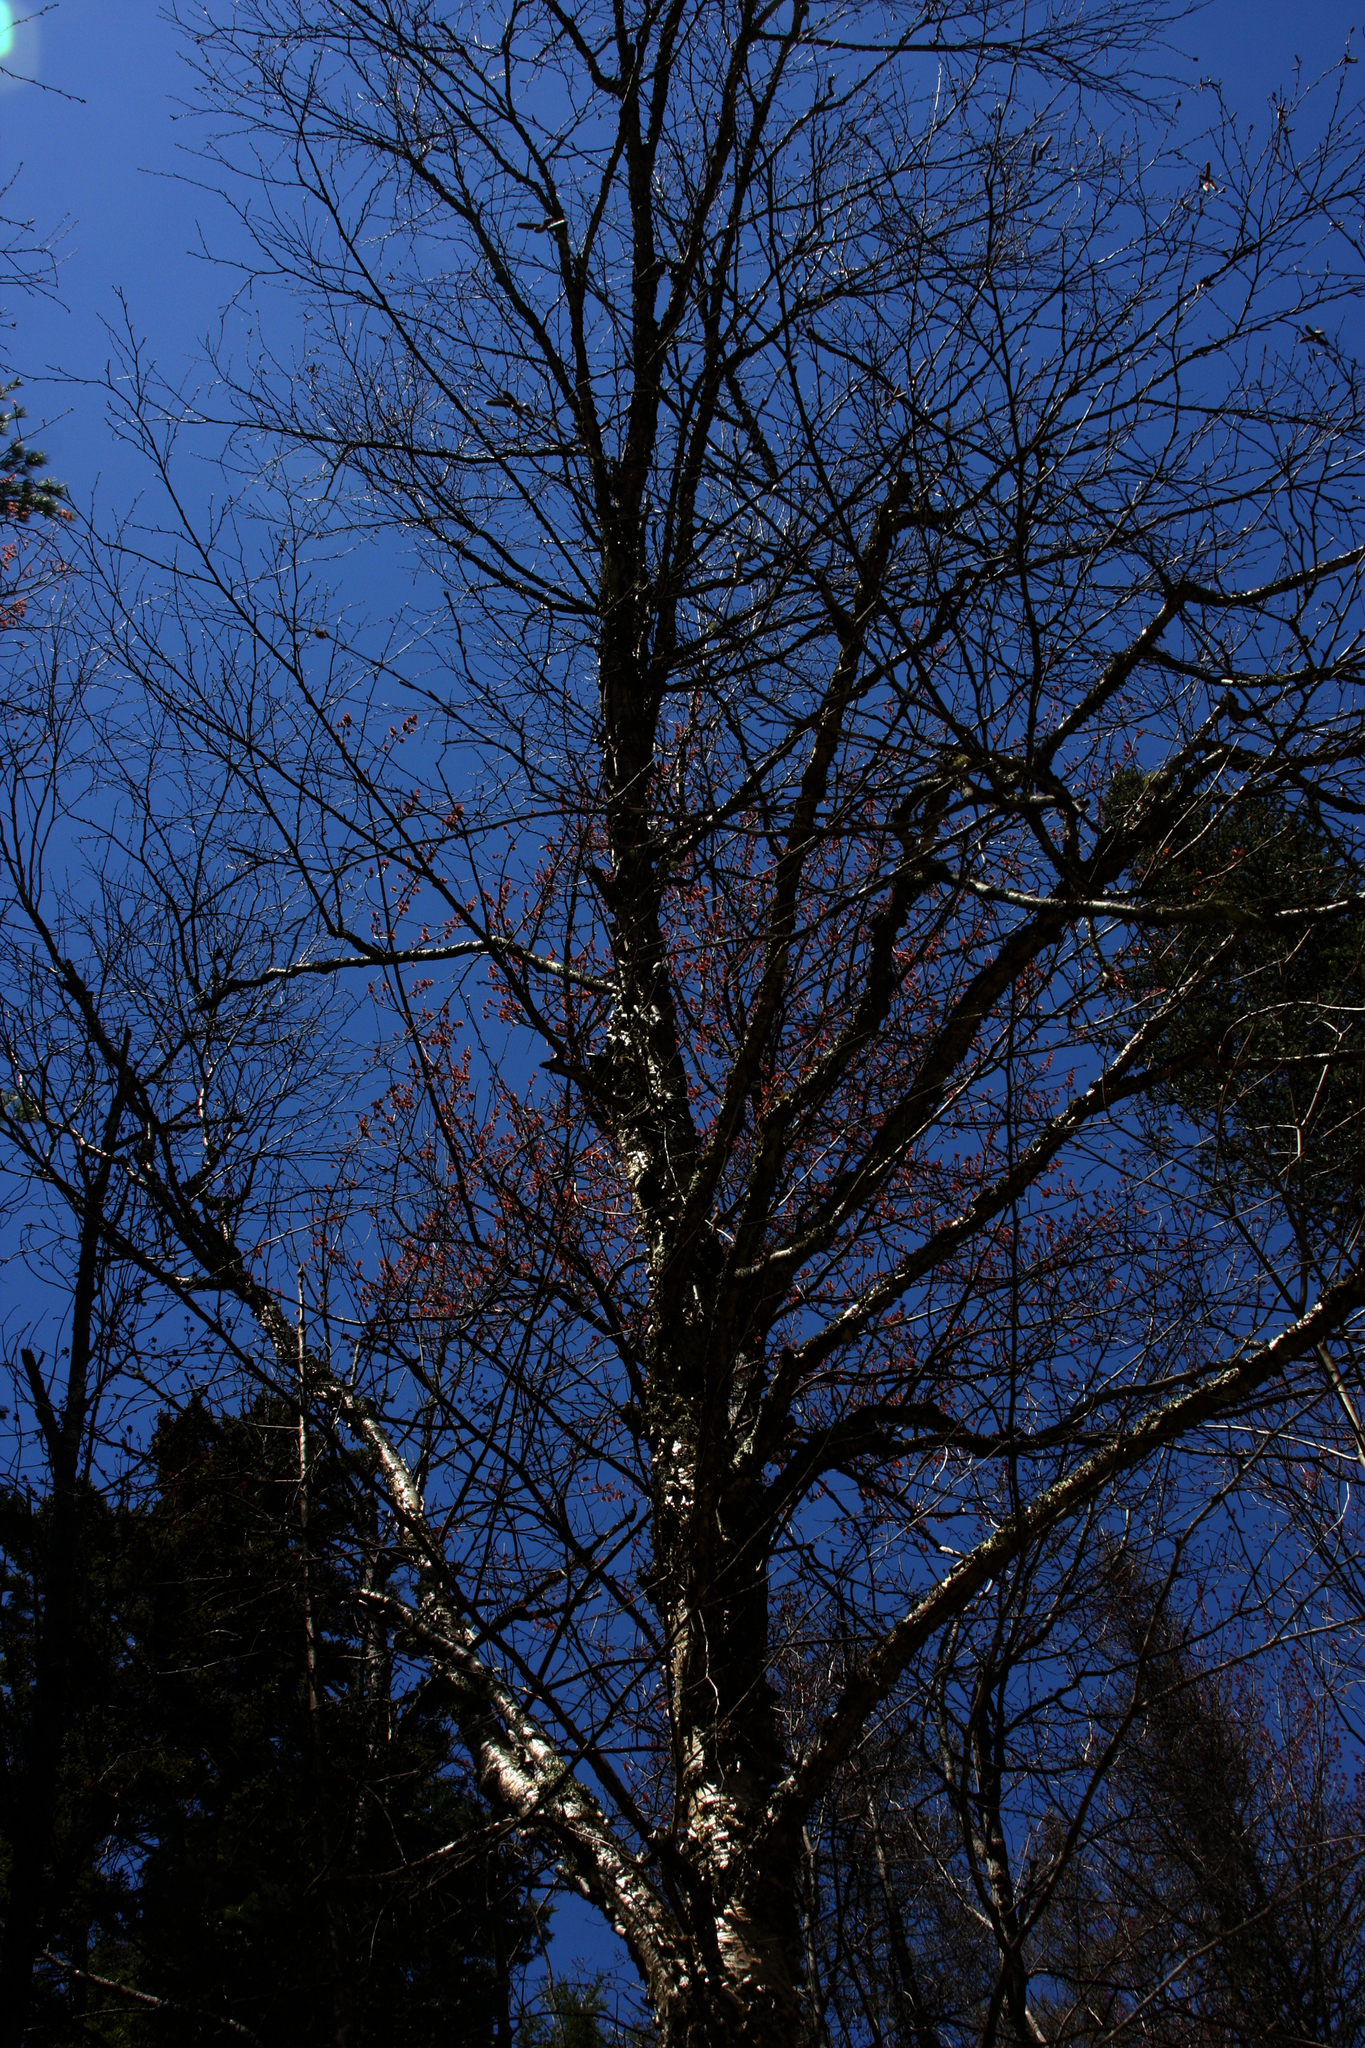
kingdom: Plantae
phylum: Tracheophyta
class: Magnoliopsida
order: Fagales
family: Betulaceae
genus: Betula
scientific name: Betula alleghaniensis
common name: Yellow birch
